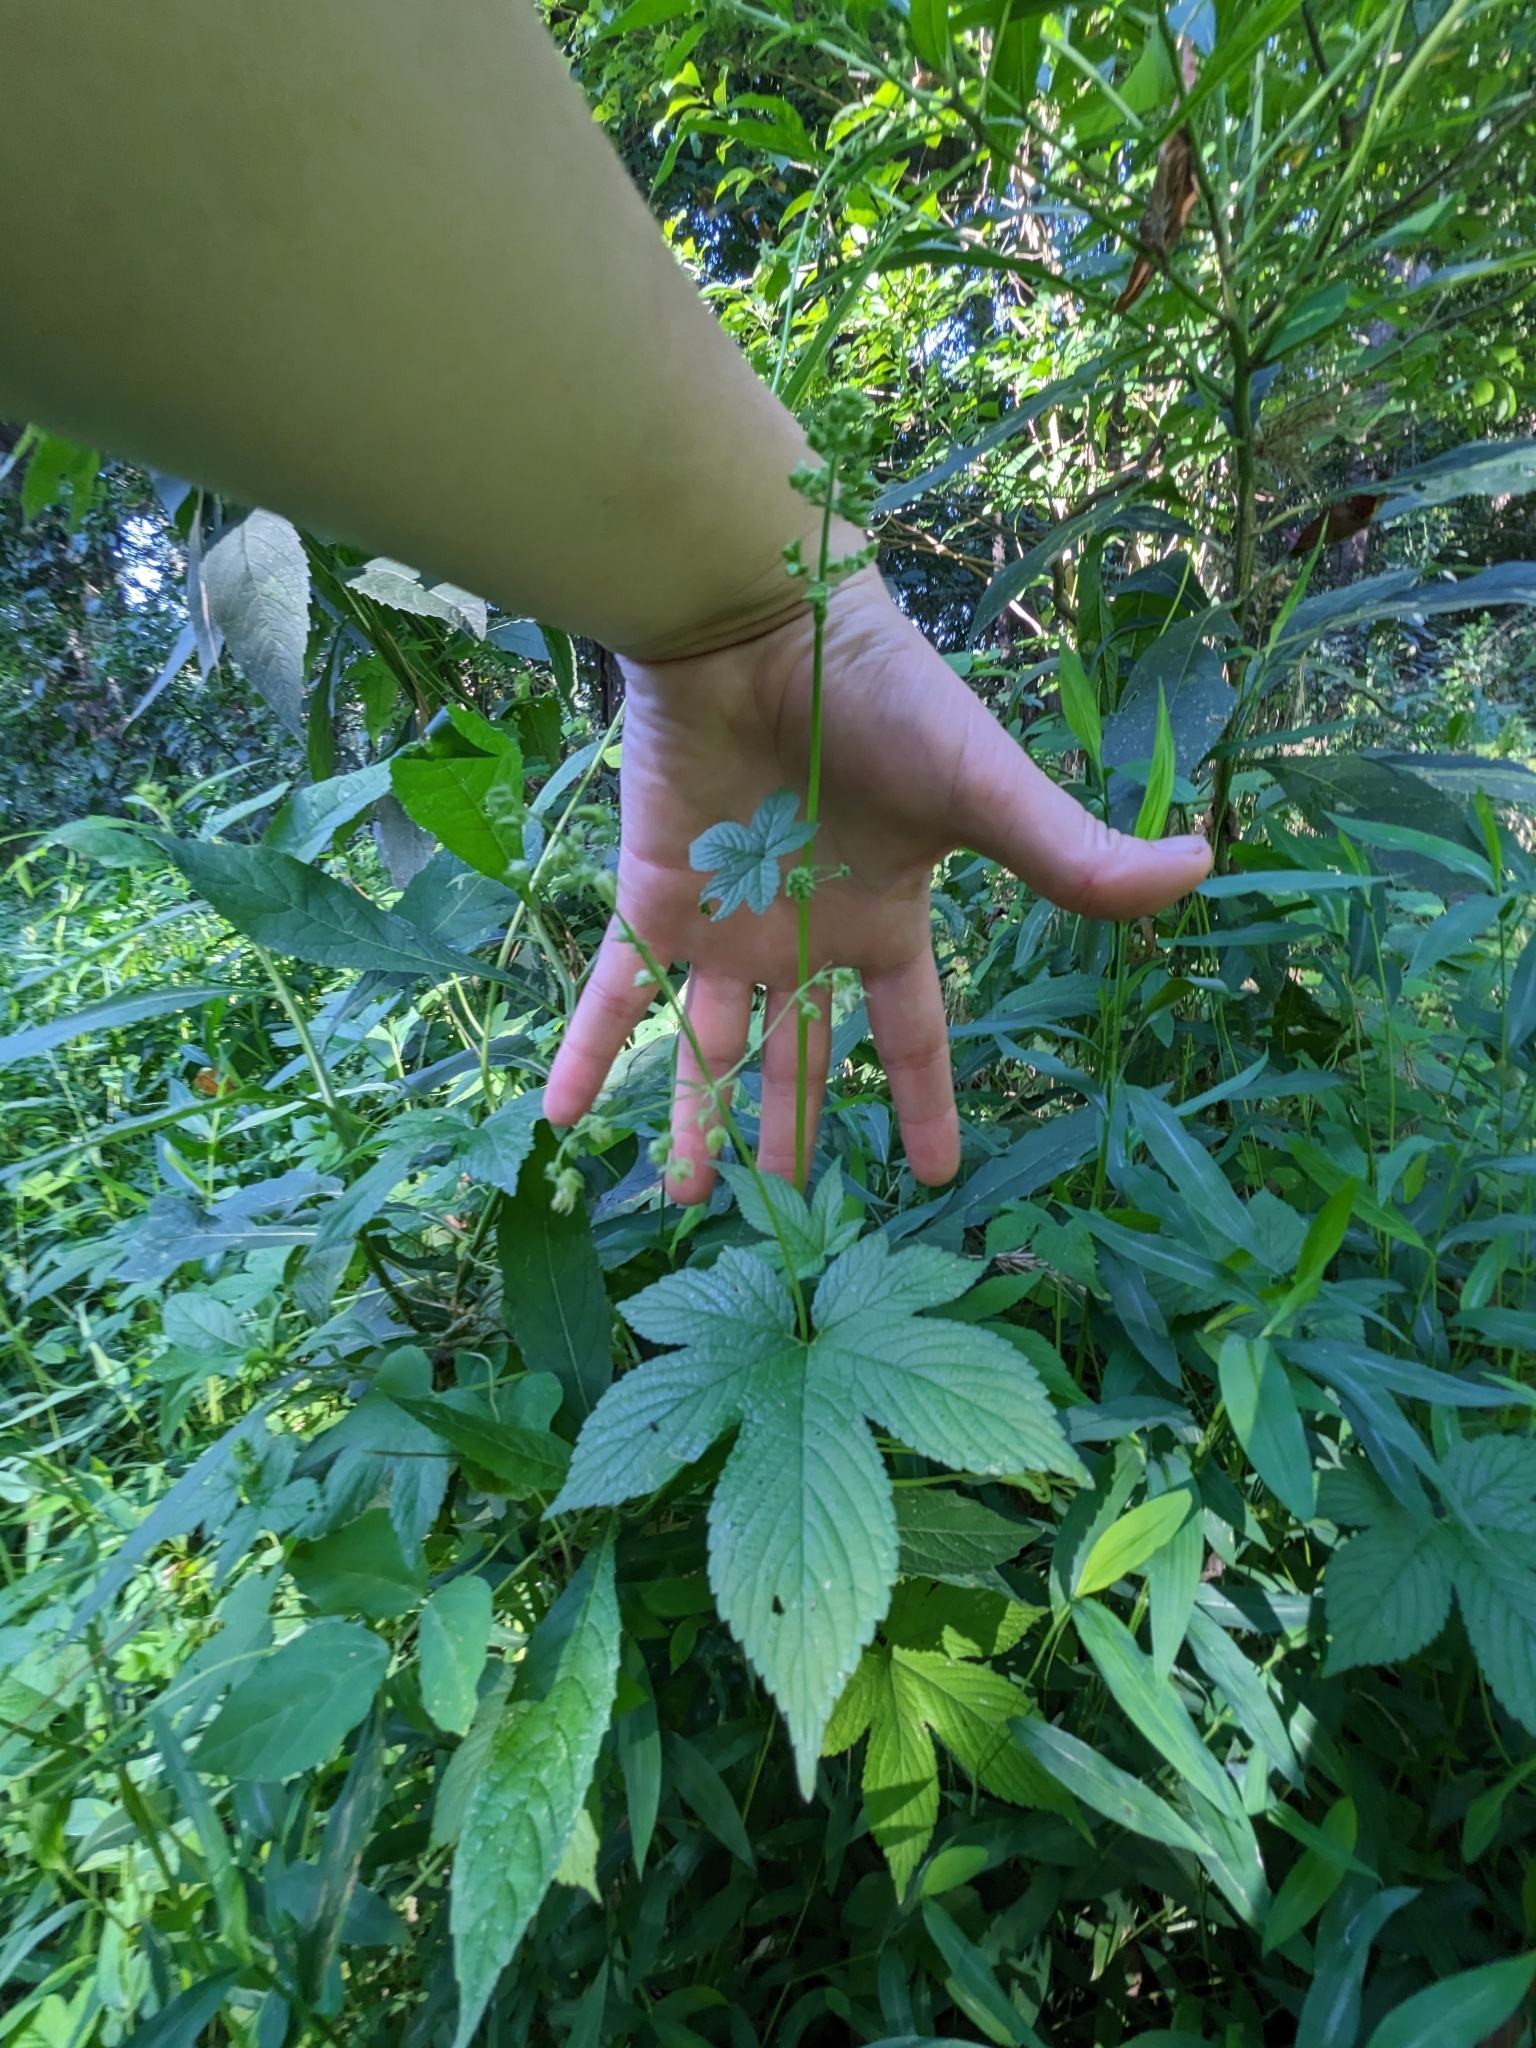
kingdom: Plantae
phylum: Tracheophyta
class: Magnoliopsida
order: Rosales
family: Cannabaceae
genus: Humulus
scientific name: Humulus scandens
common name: Japanese hop
